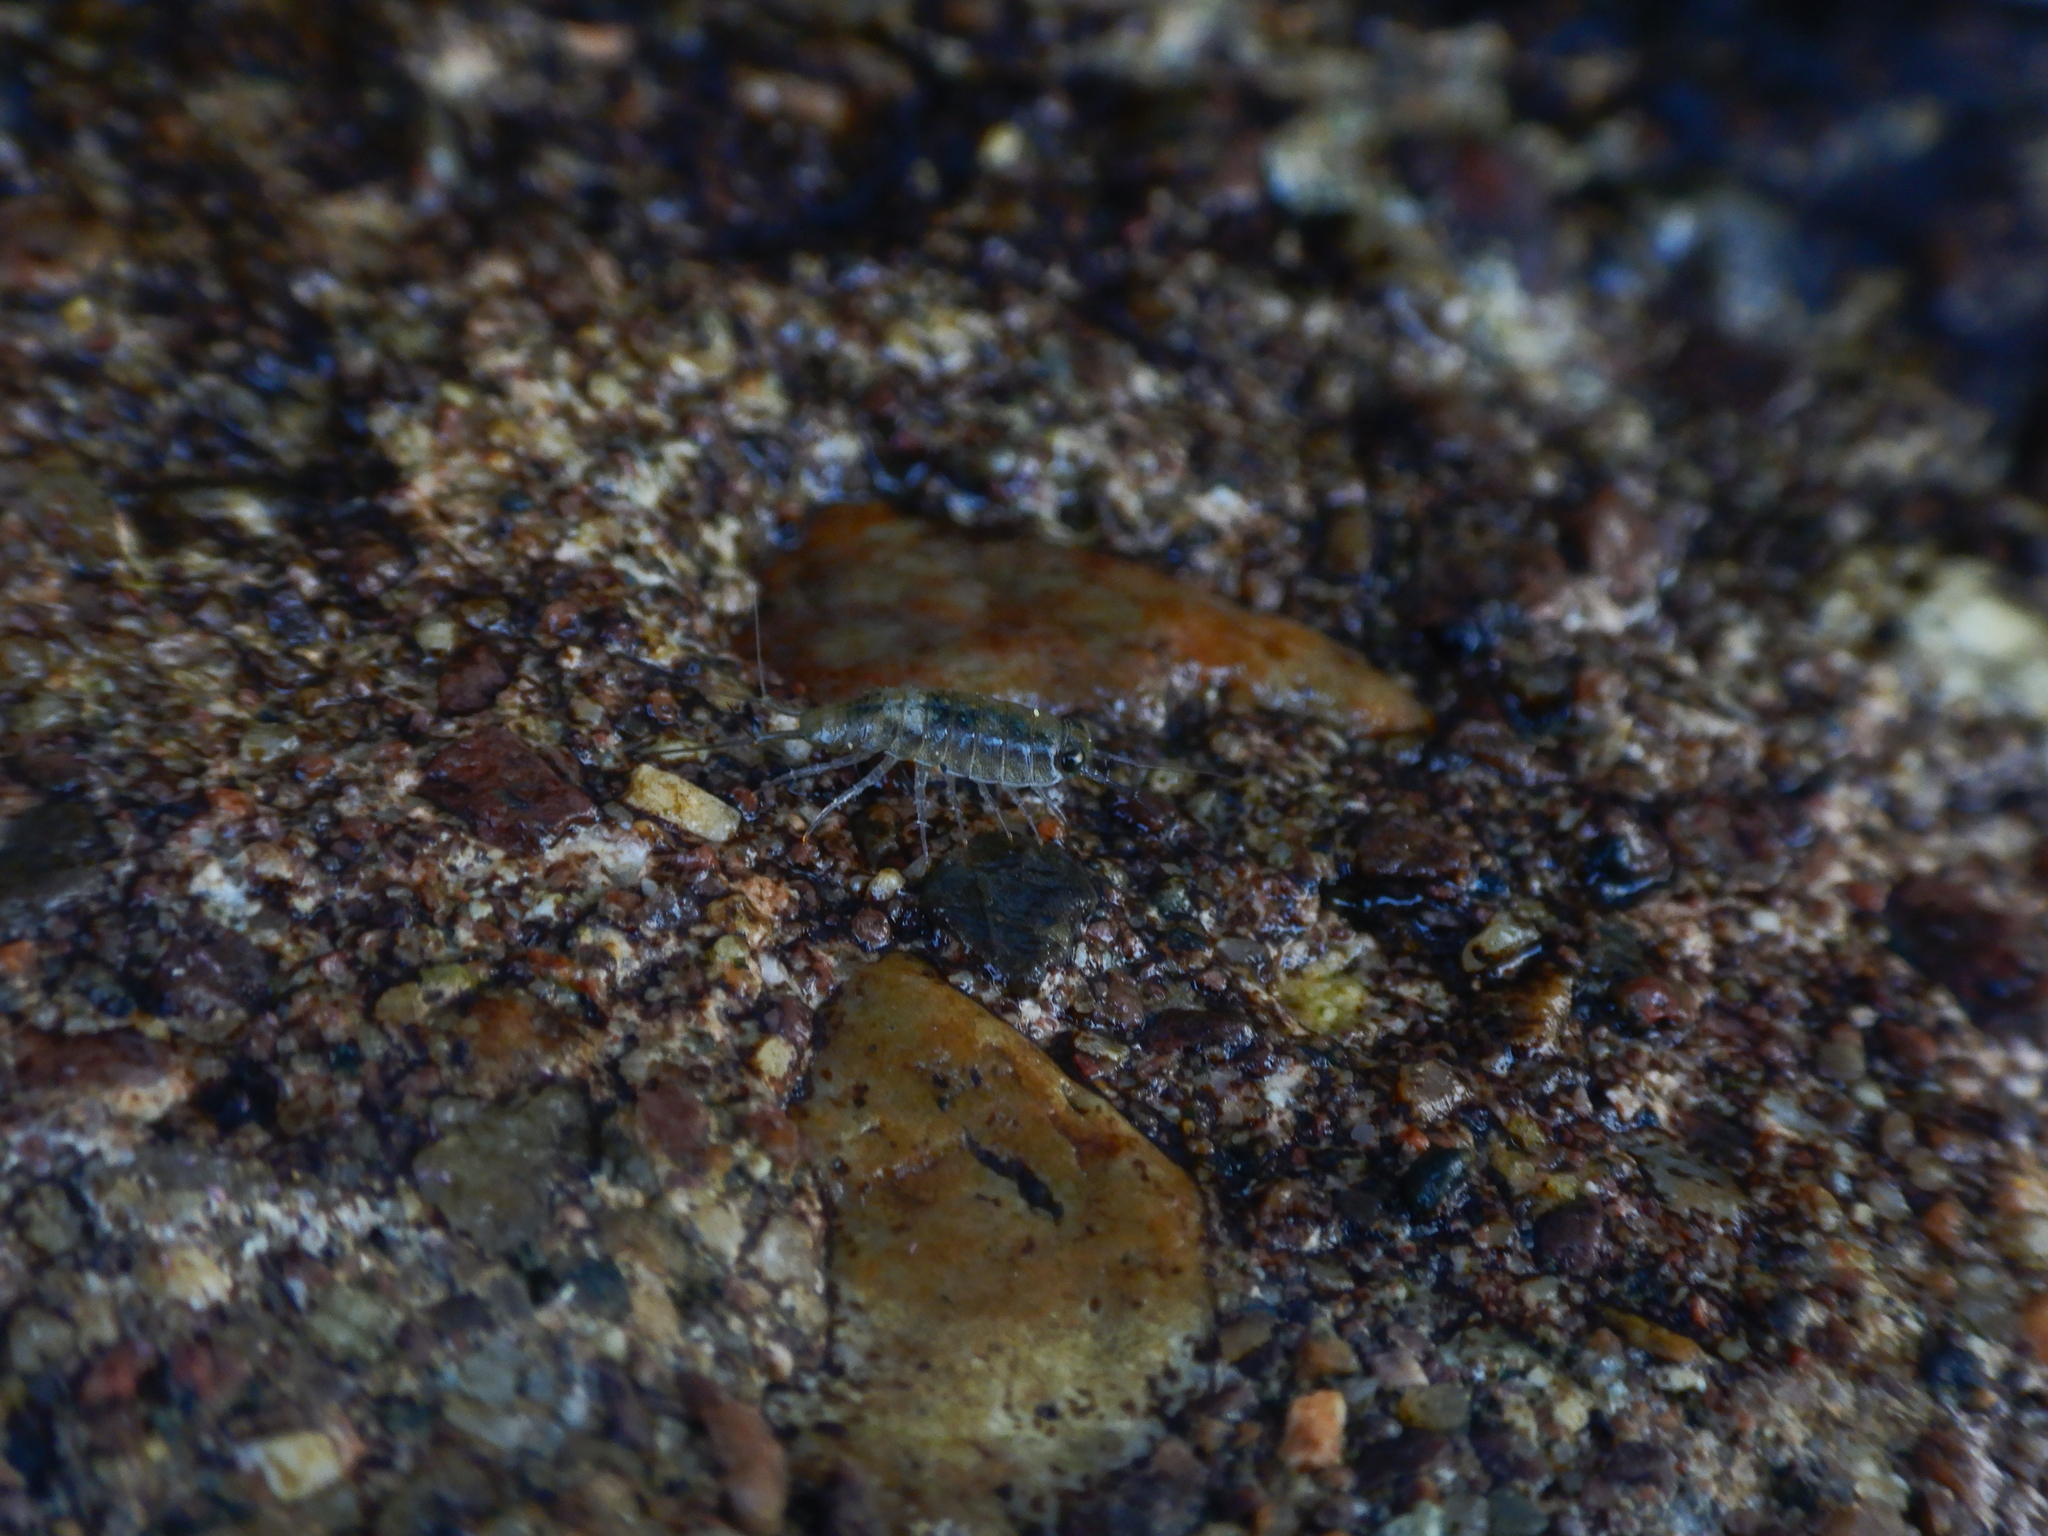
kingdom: Animalia
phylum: Arthropoda
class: Malacostraca
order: Isopoda
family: Ligiidae
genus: Ligia
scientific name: Ligia italica
